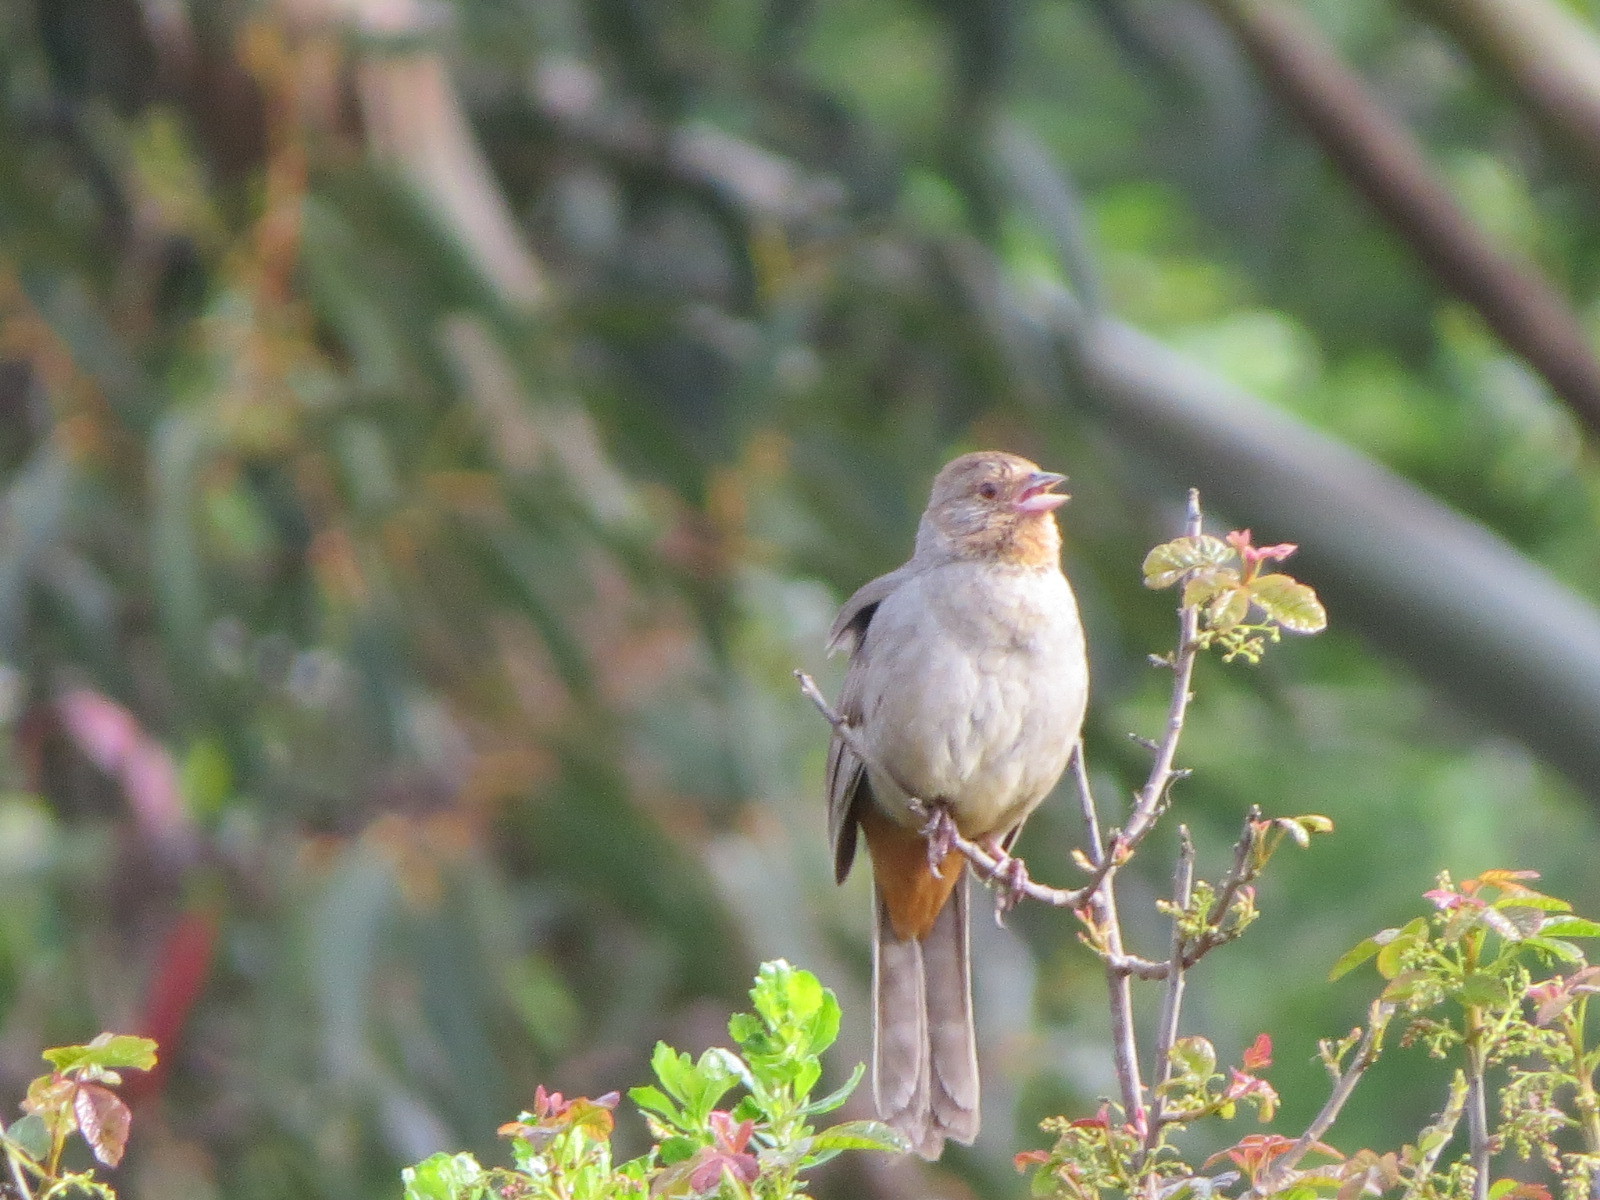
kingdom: Animalia
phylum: Chordata
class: Aves
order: Passeriformes
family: Passerellidae
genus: Melozone
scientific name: Melozone crissalis
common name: California towhee
